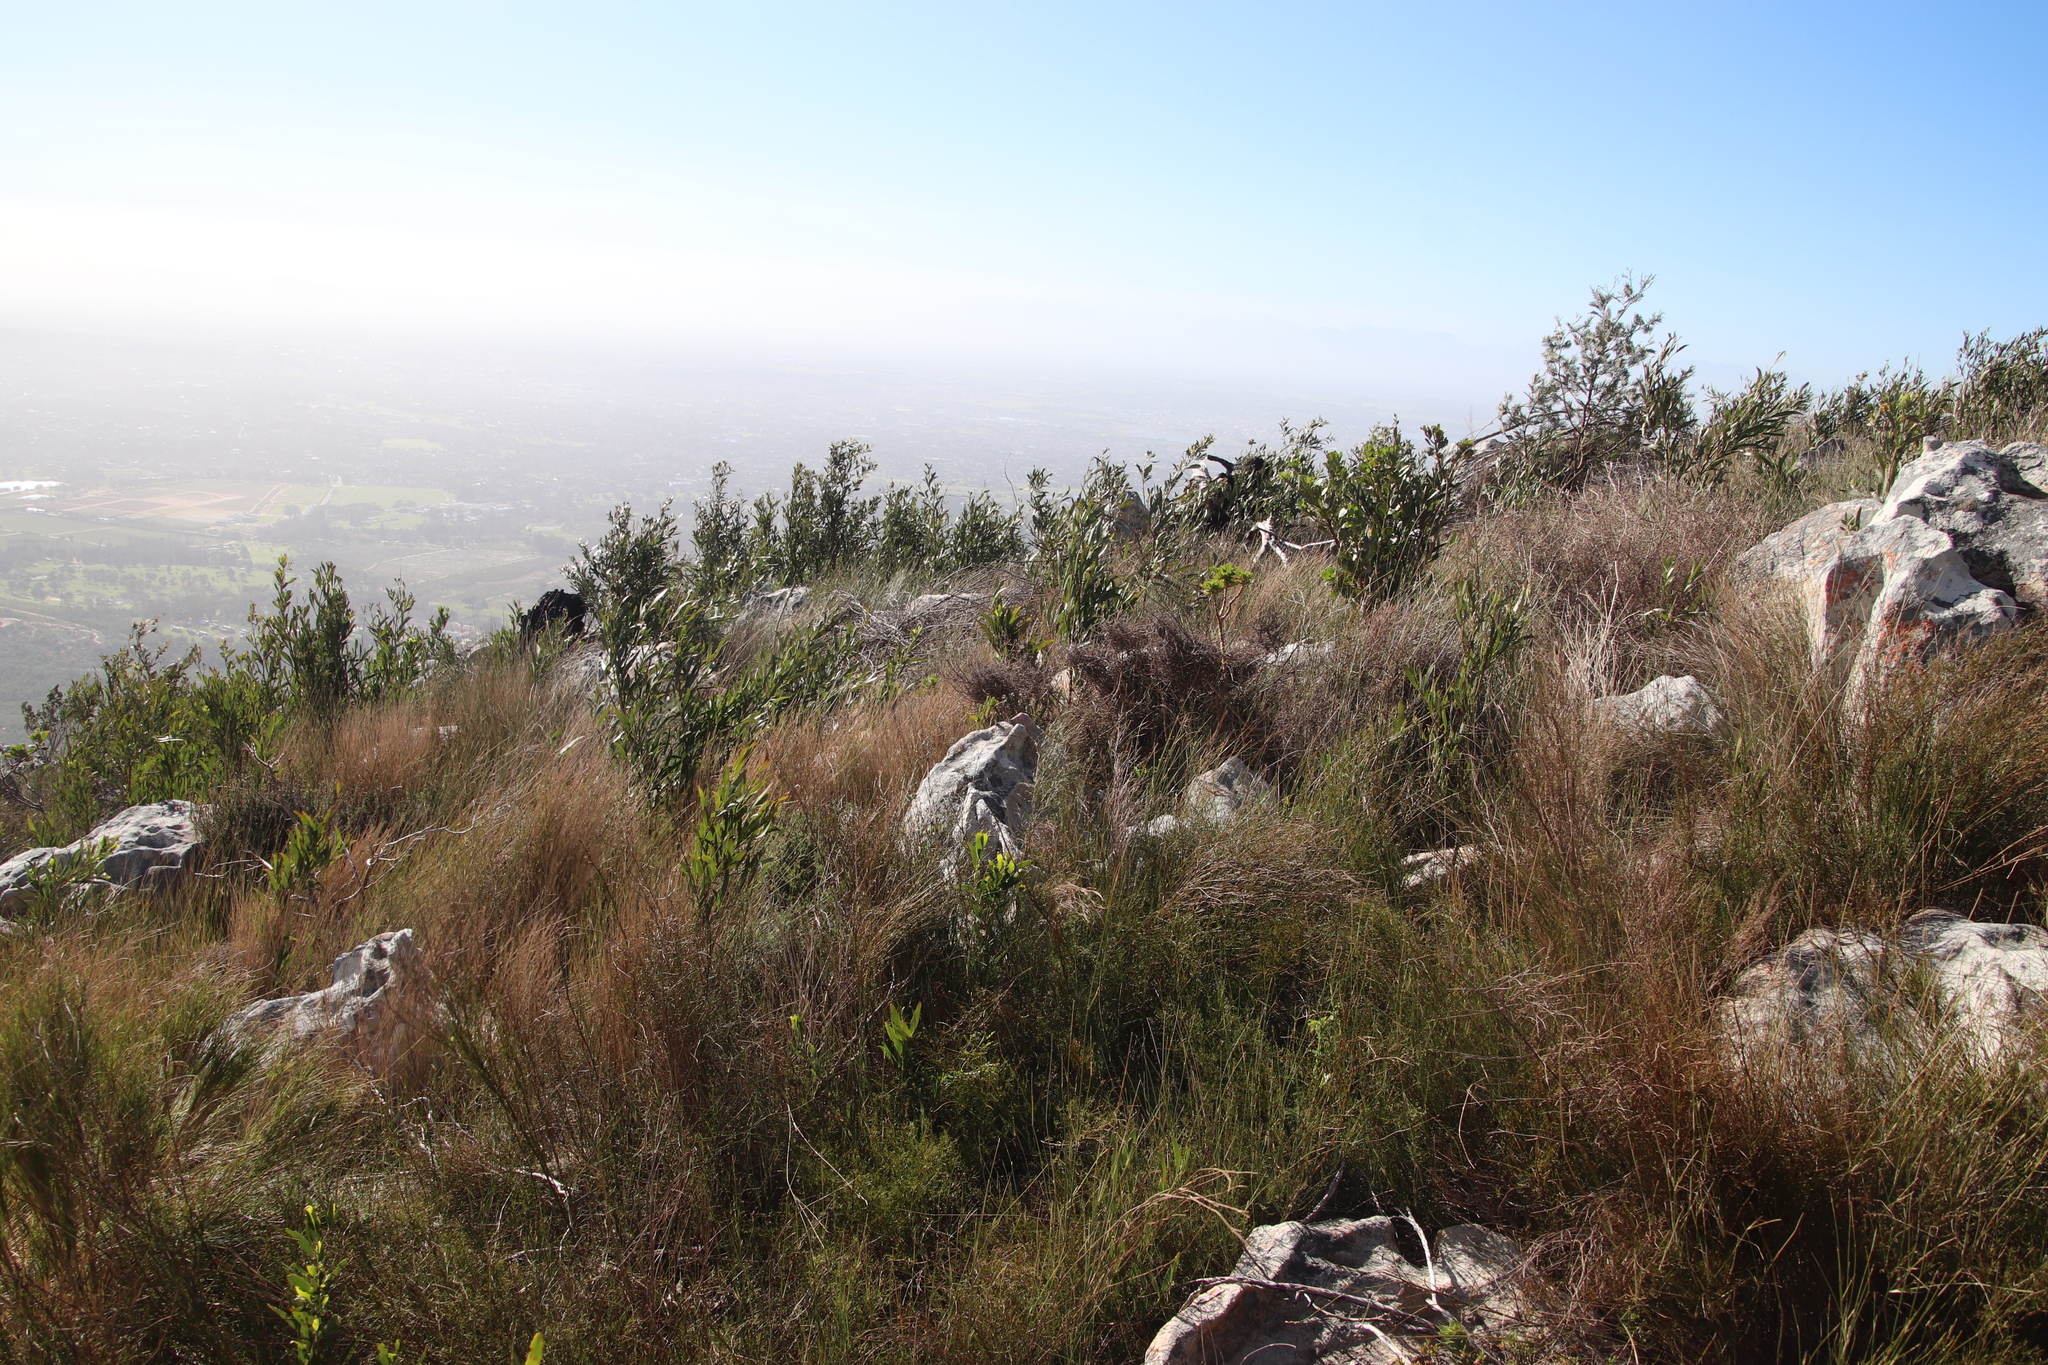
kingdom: Plantae
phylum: Tracheophyta
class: Magnoliopsida
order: Fabales
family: Fabaceae
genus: Acacia
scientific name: Acacia melanoxylon
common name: Blackwood
